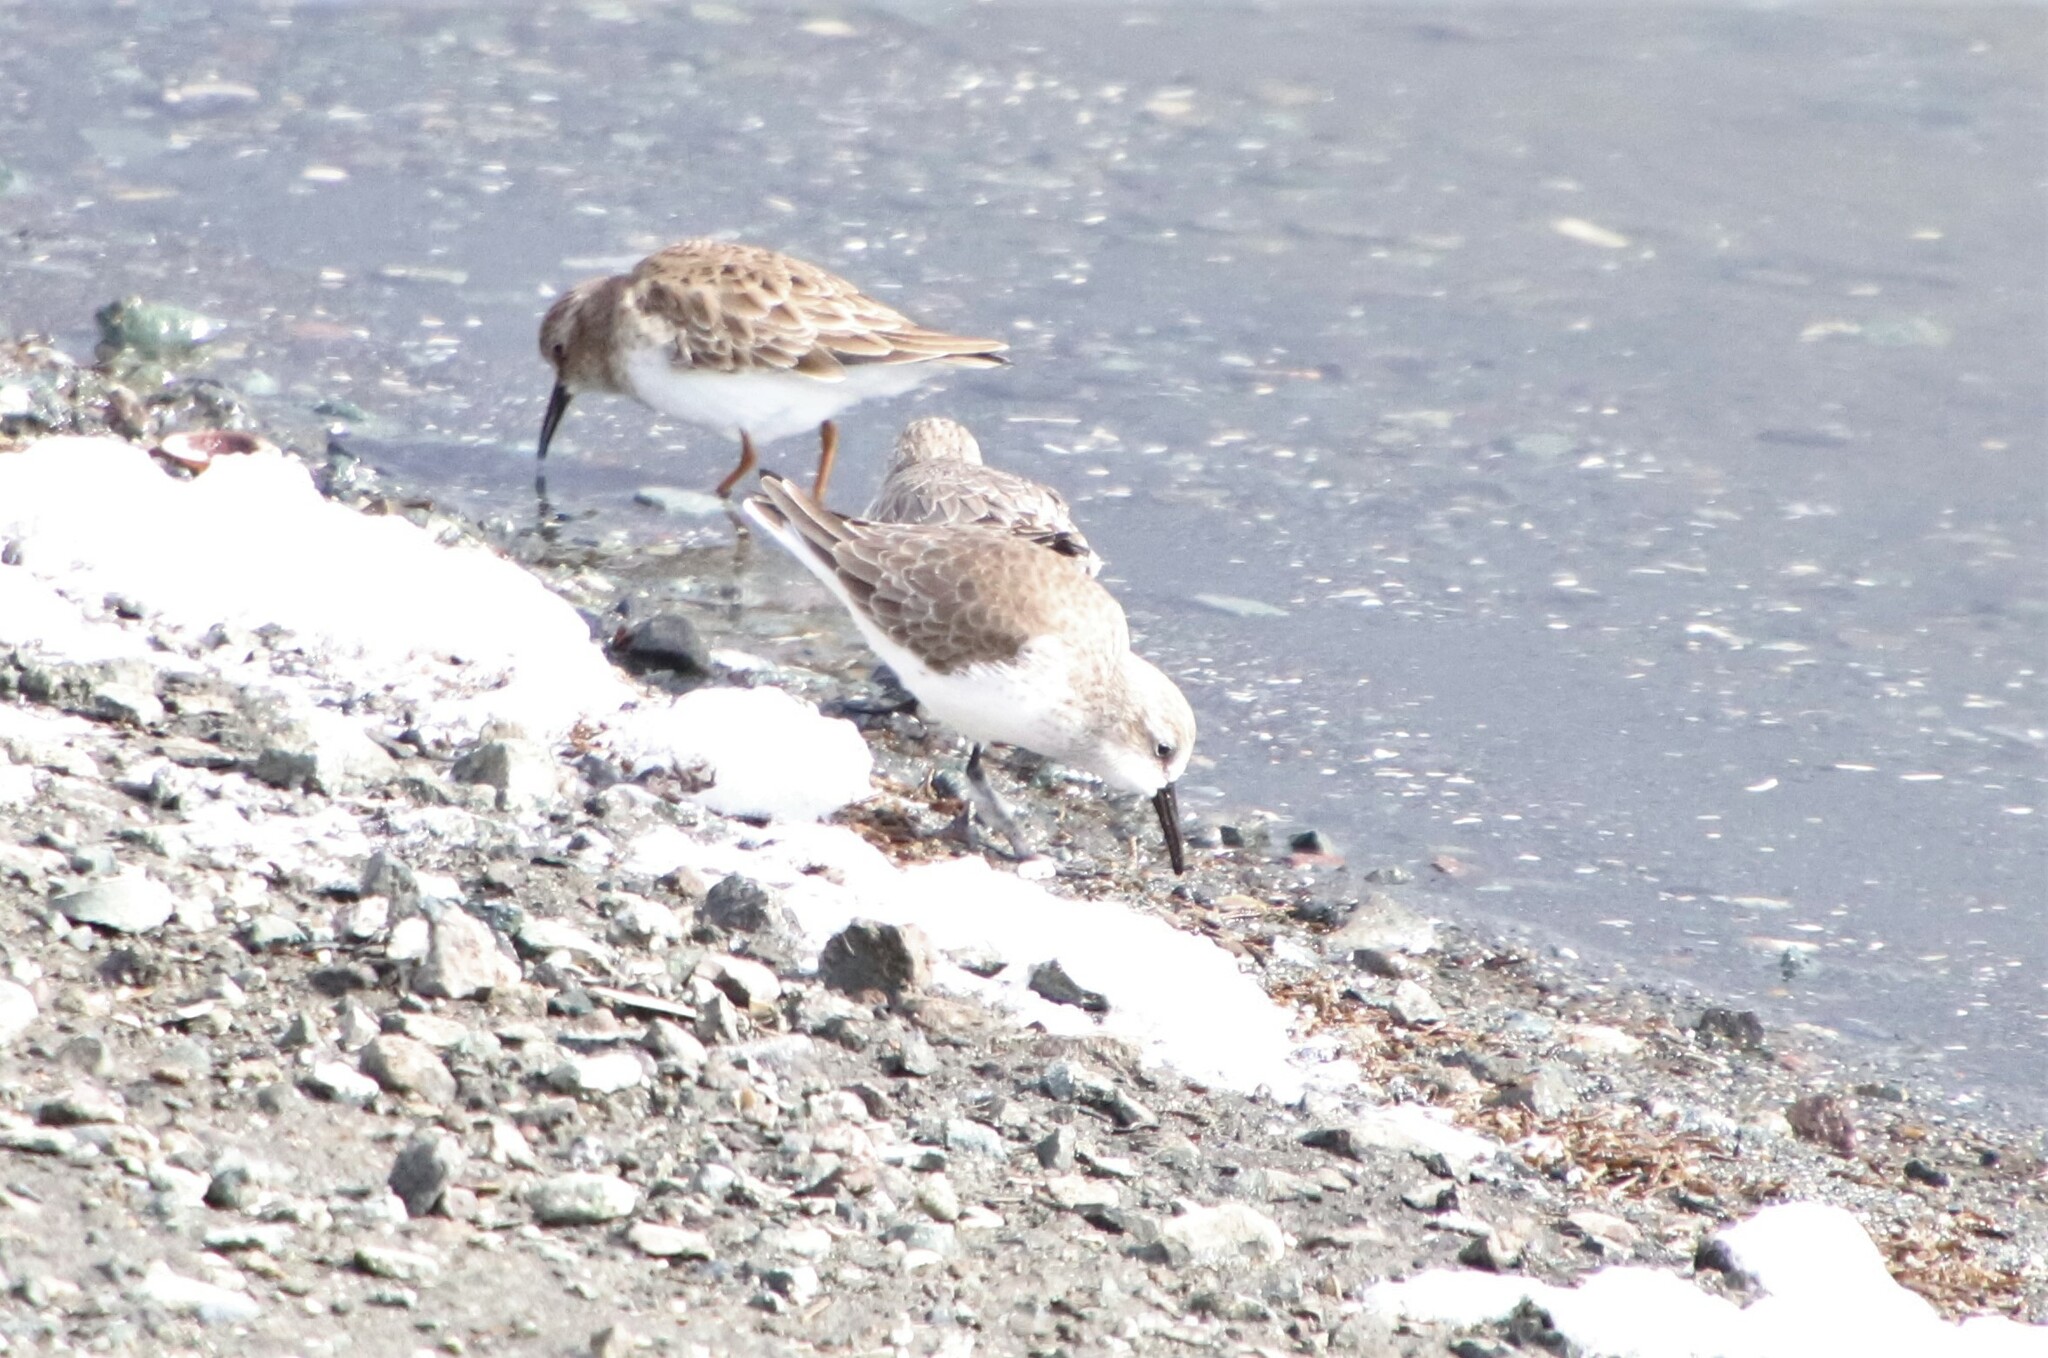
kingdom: Animalia
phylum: Chordata
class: Aves
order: Charadriiformes
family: Scolopacidae
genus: Calidris
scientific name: Calidris mauri
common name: Western sandpiper
